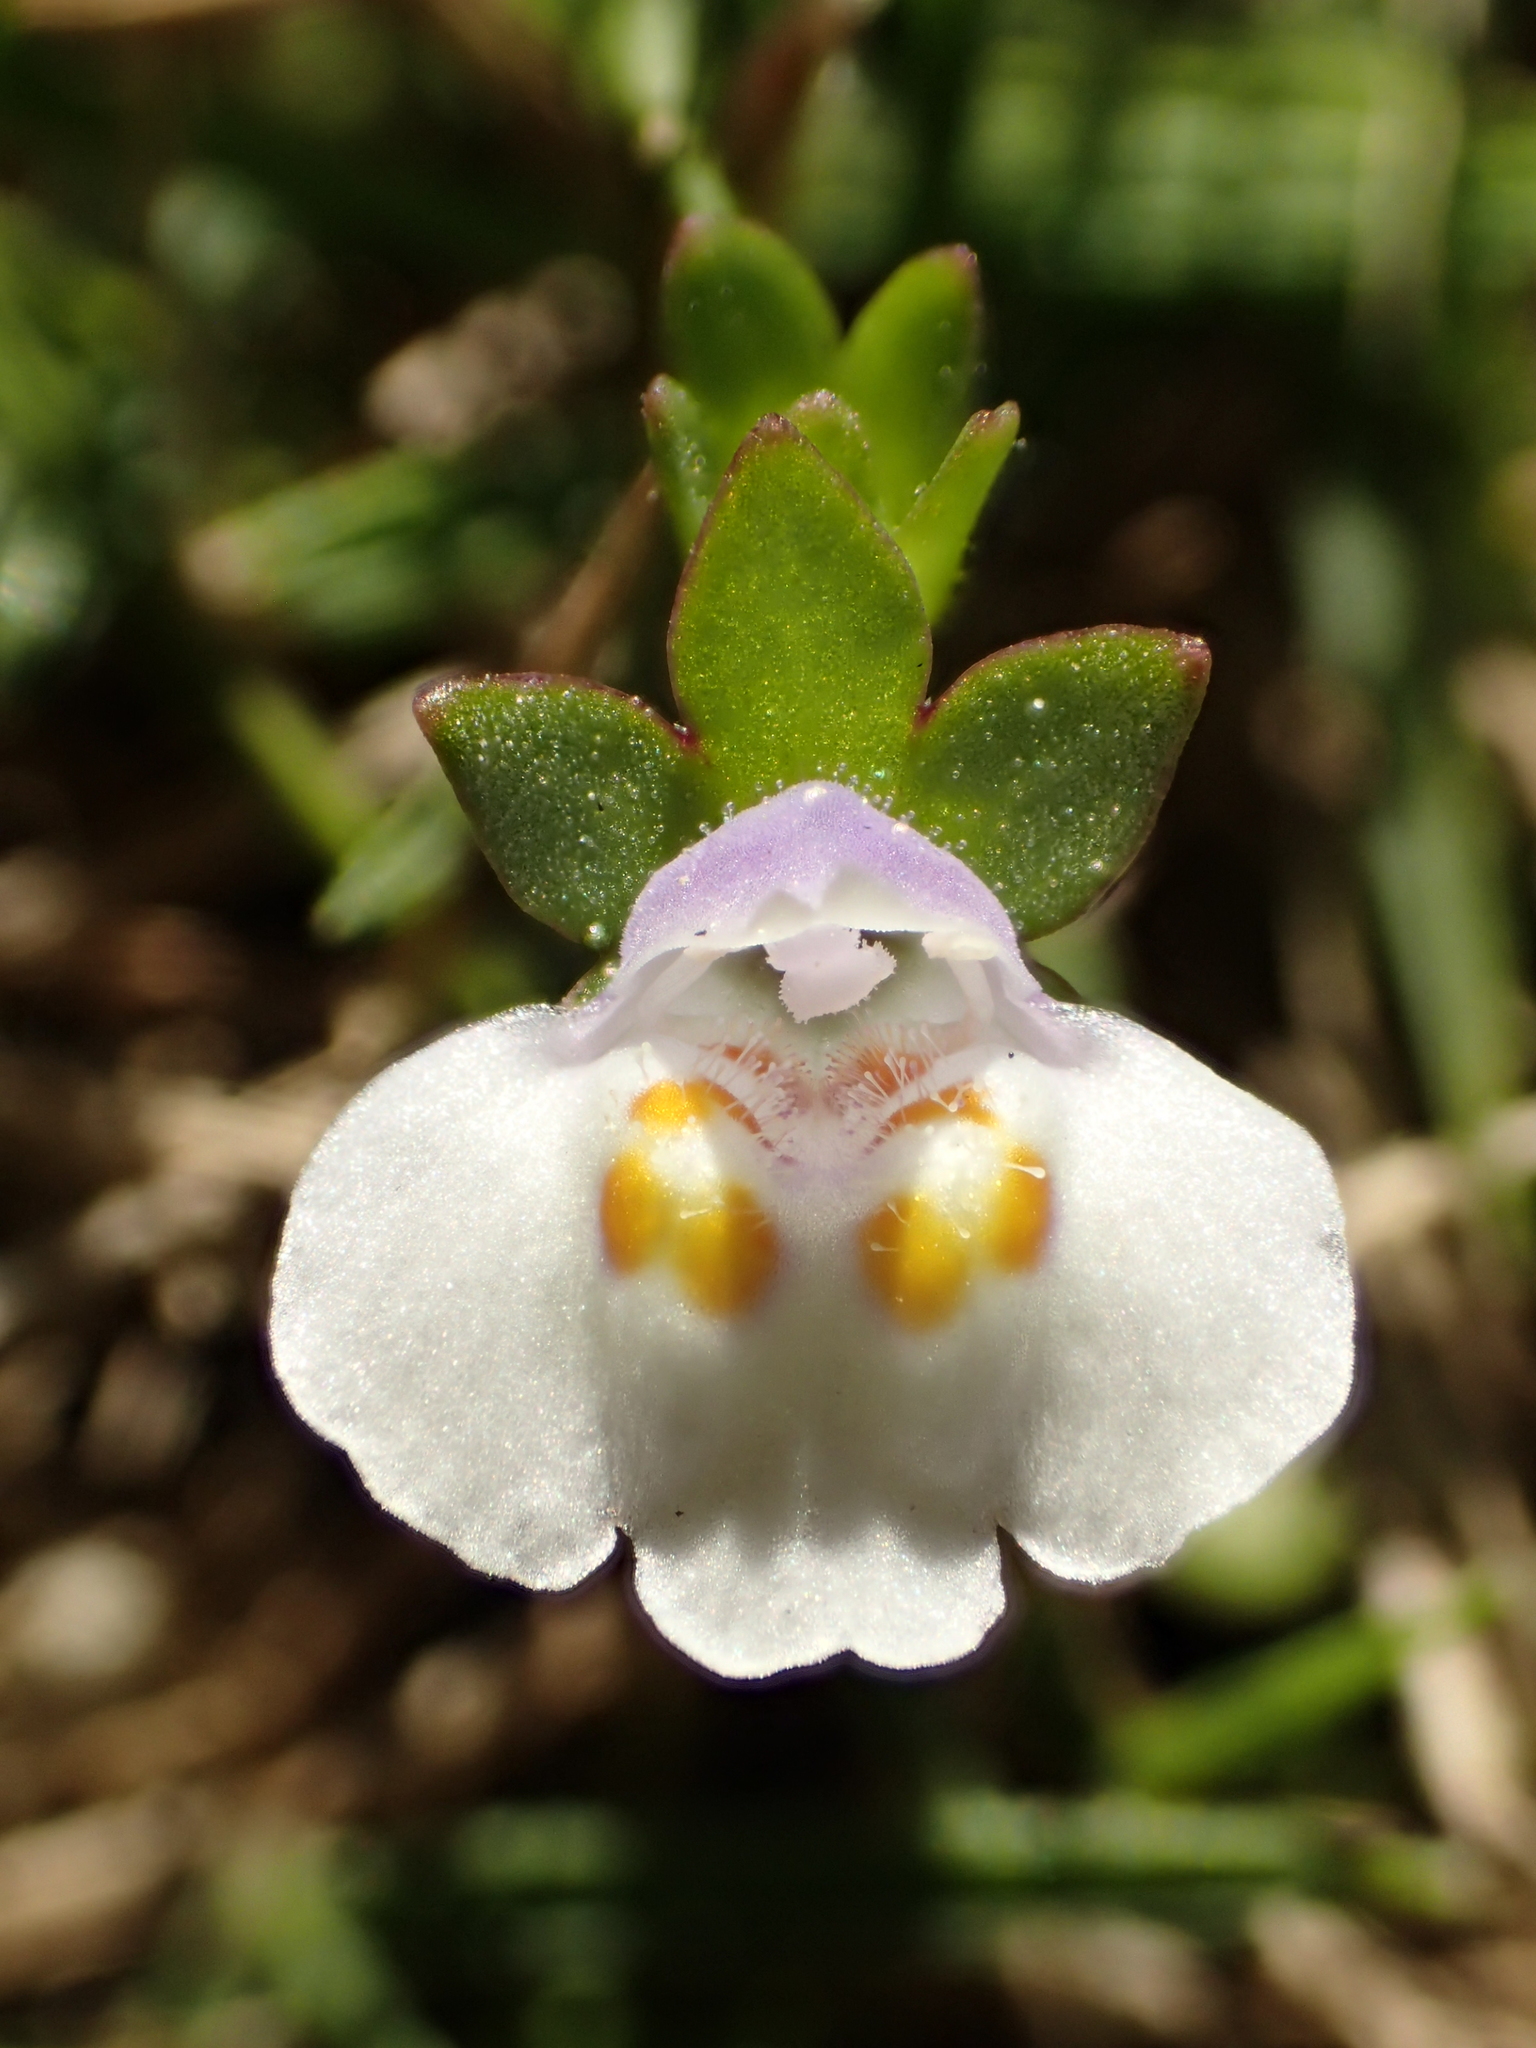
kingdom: Plantae
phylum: Tracheophyta
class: Magnoliopsida
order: Lamiales
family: Mazaceae
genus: Mazus
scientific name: Mazus pumilus
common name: Japanese mazus
